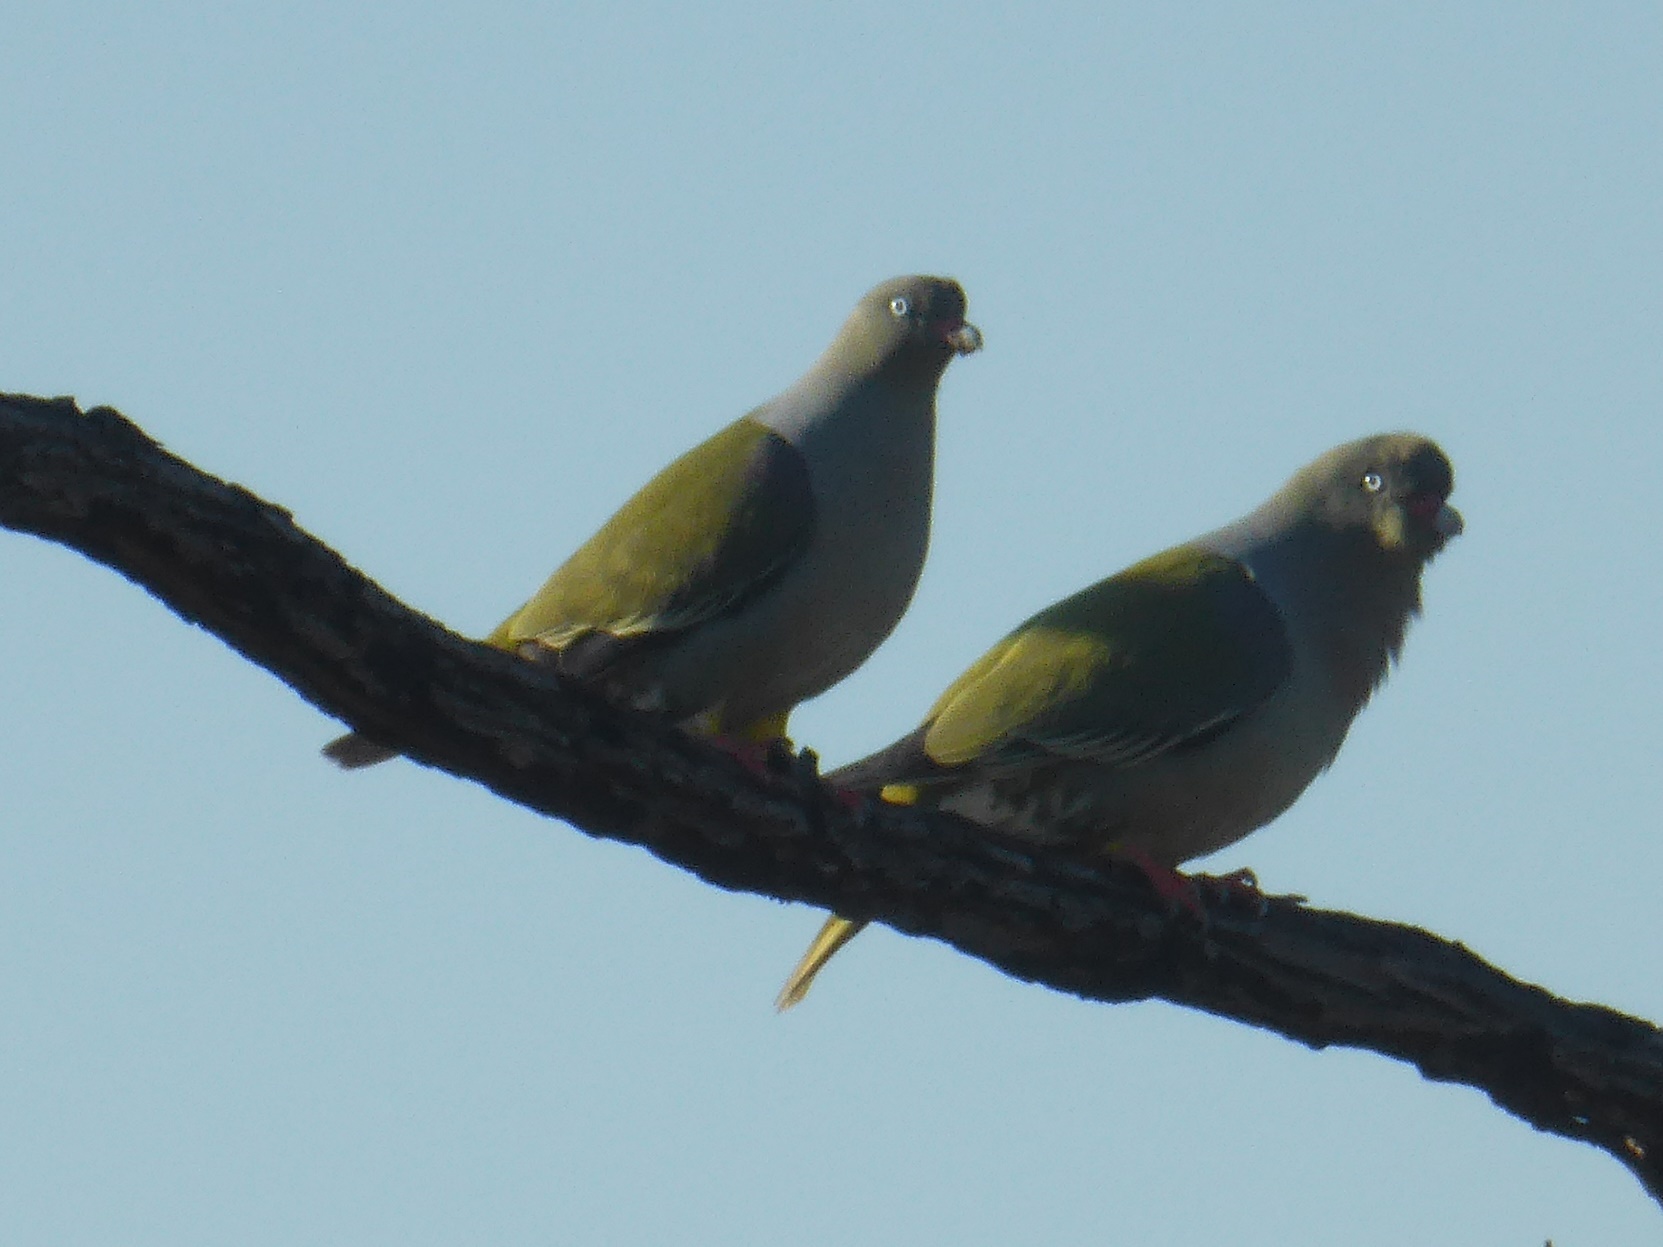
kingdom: Animalia
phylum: Chordata
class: Aves
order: Columbiformes
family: Columbidae
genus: Treron
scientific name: Treron calvus
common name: African green pigeon
